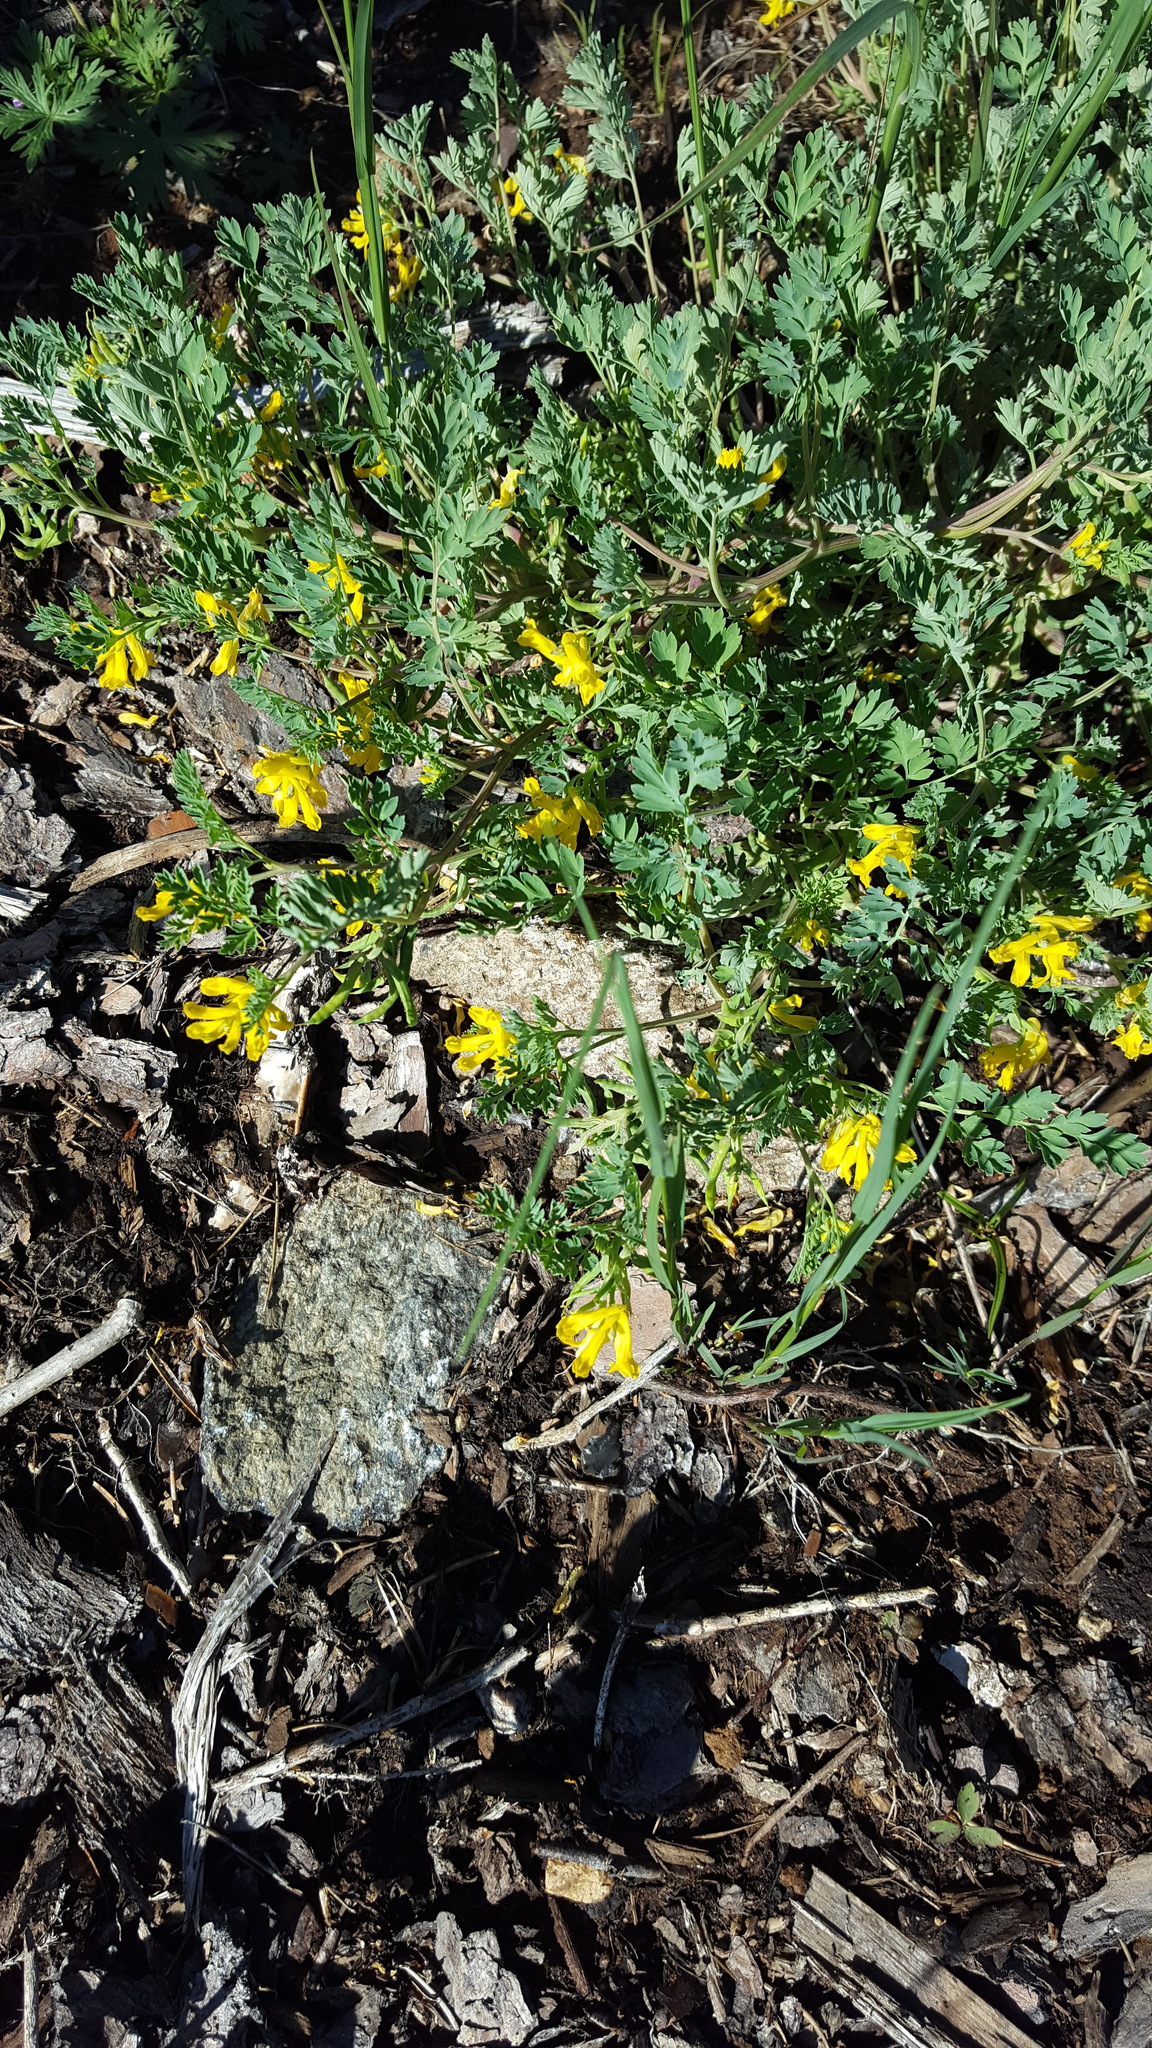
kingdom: Plantae
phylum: Tracheophyta
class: Magnoliopsida
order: Ranunculales
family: Papaveraceae
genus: Corydalis
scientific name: Corydalis aurea
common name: Golden corydalis
